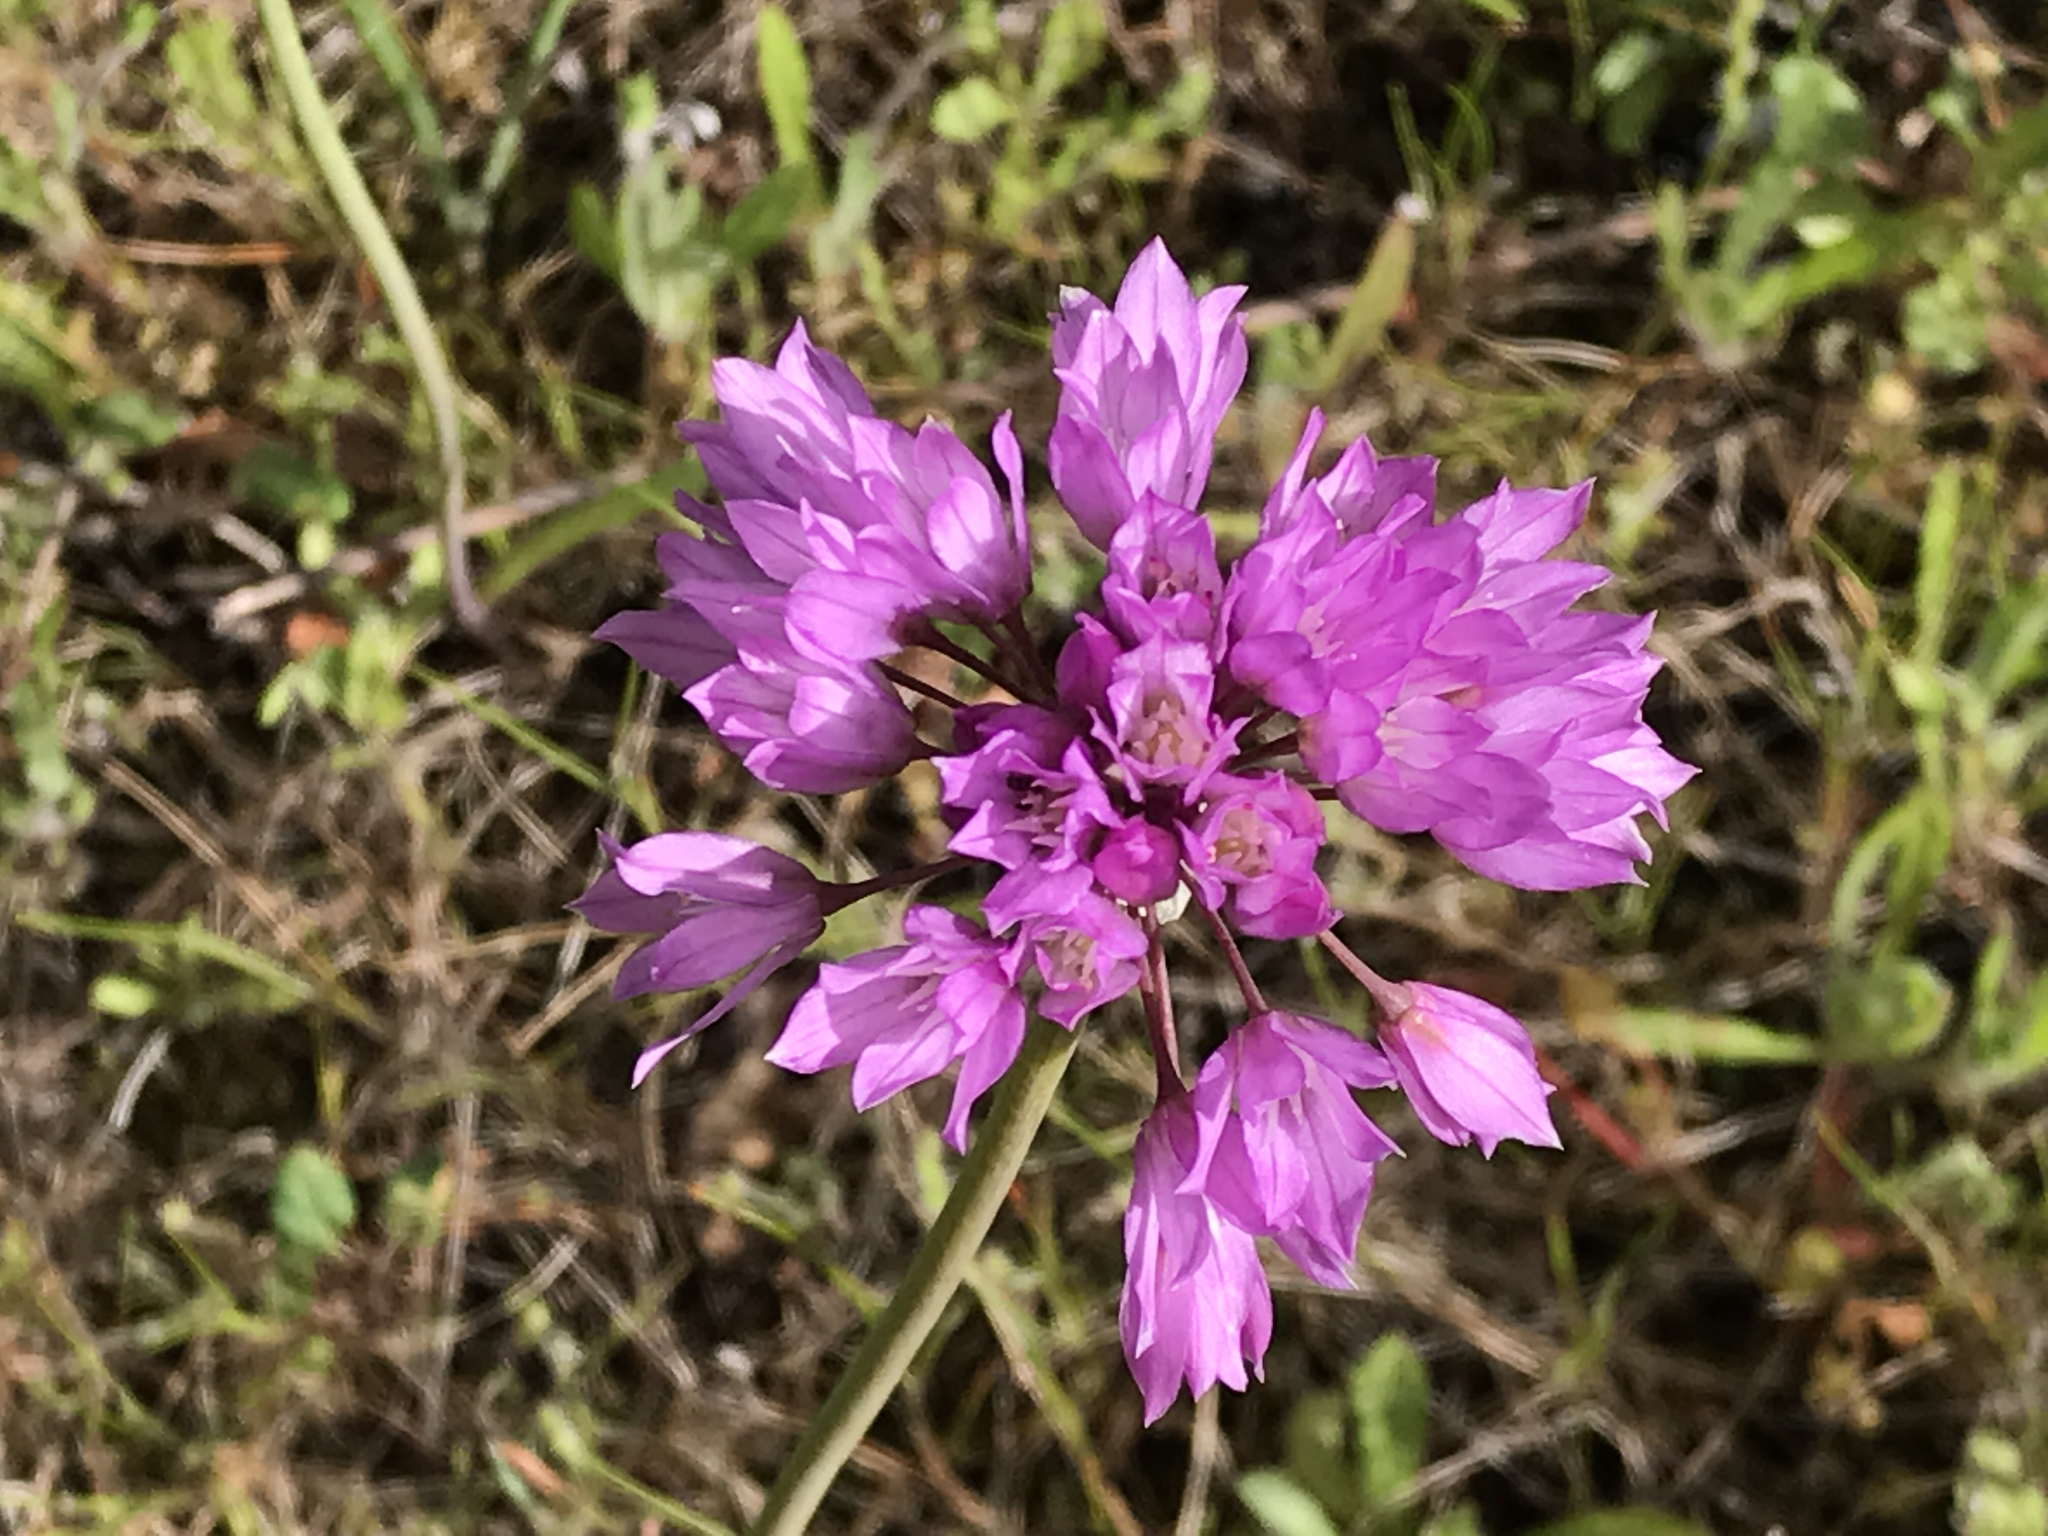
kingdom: Plantae
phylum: Tracheophyta
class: Liliopsida
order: Asparagales
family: Amaryllidaceae
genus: Allium
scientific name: Allium serra
